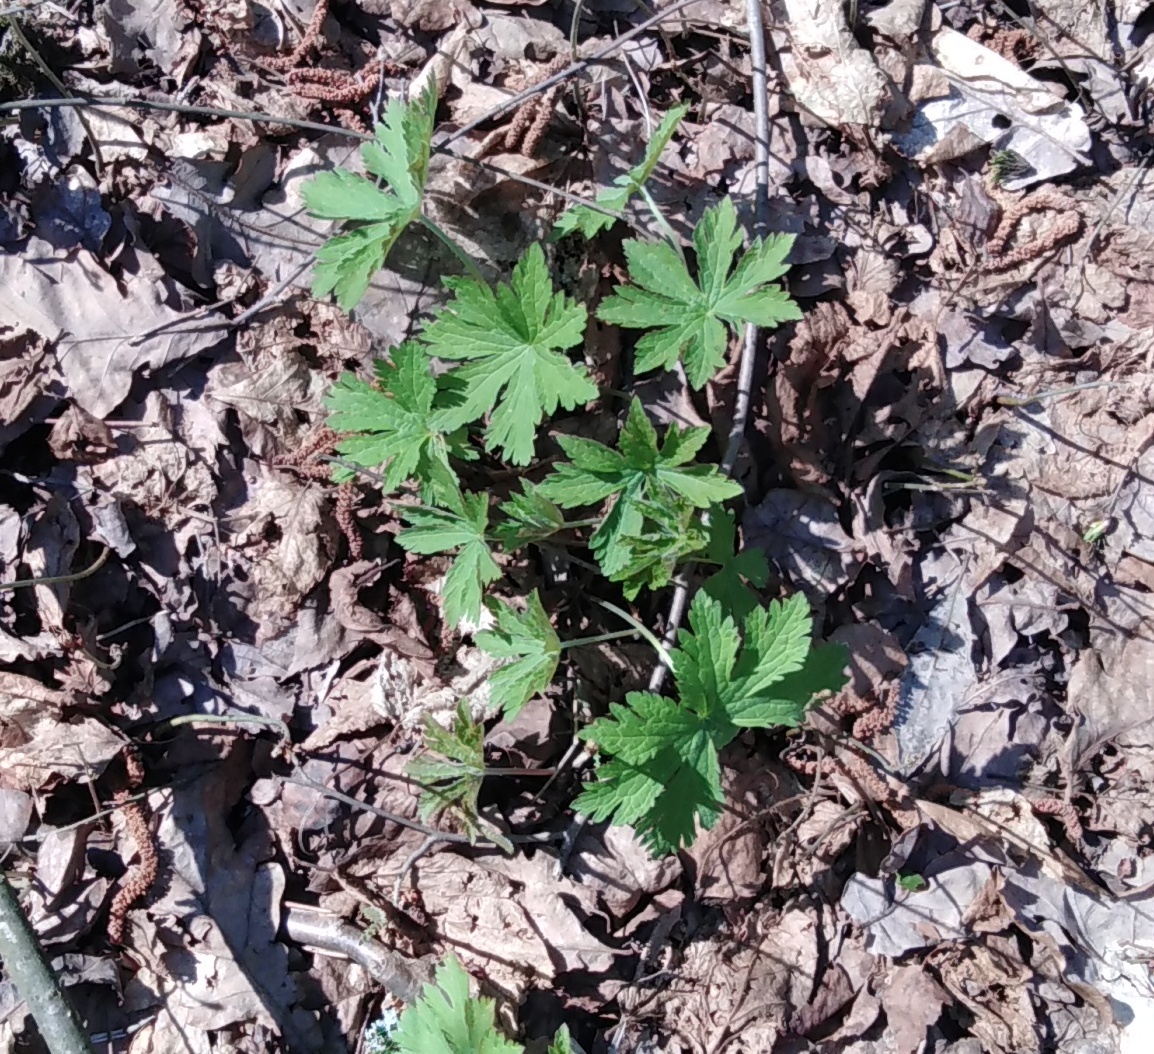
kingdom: Plantae
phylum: Tracheophyta
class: Magnoliopsida
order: Geraniales
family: Geraniaceae
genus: Geranium
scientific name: Geranium sylvaticum
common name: Wood crane's-bill
